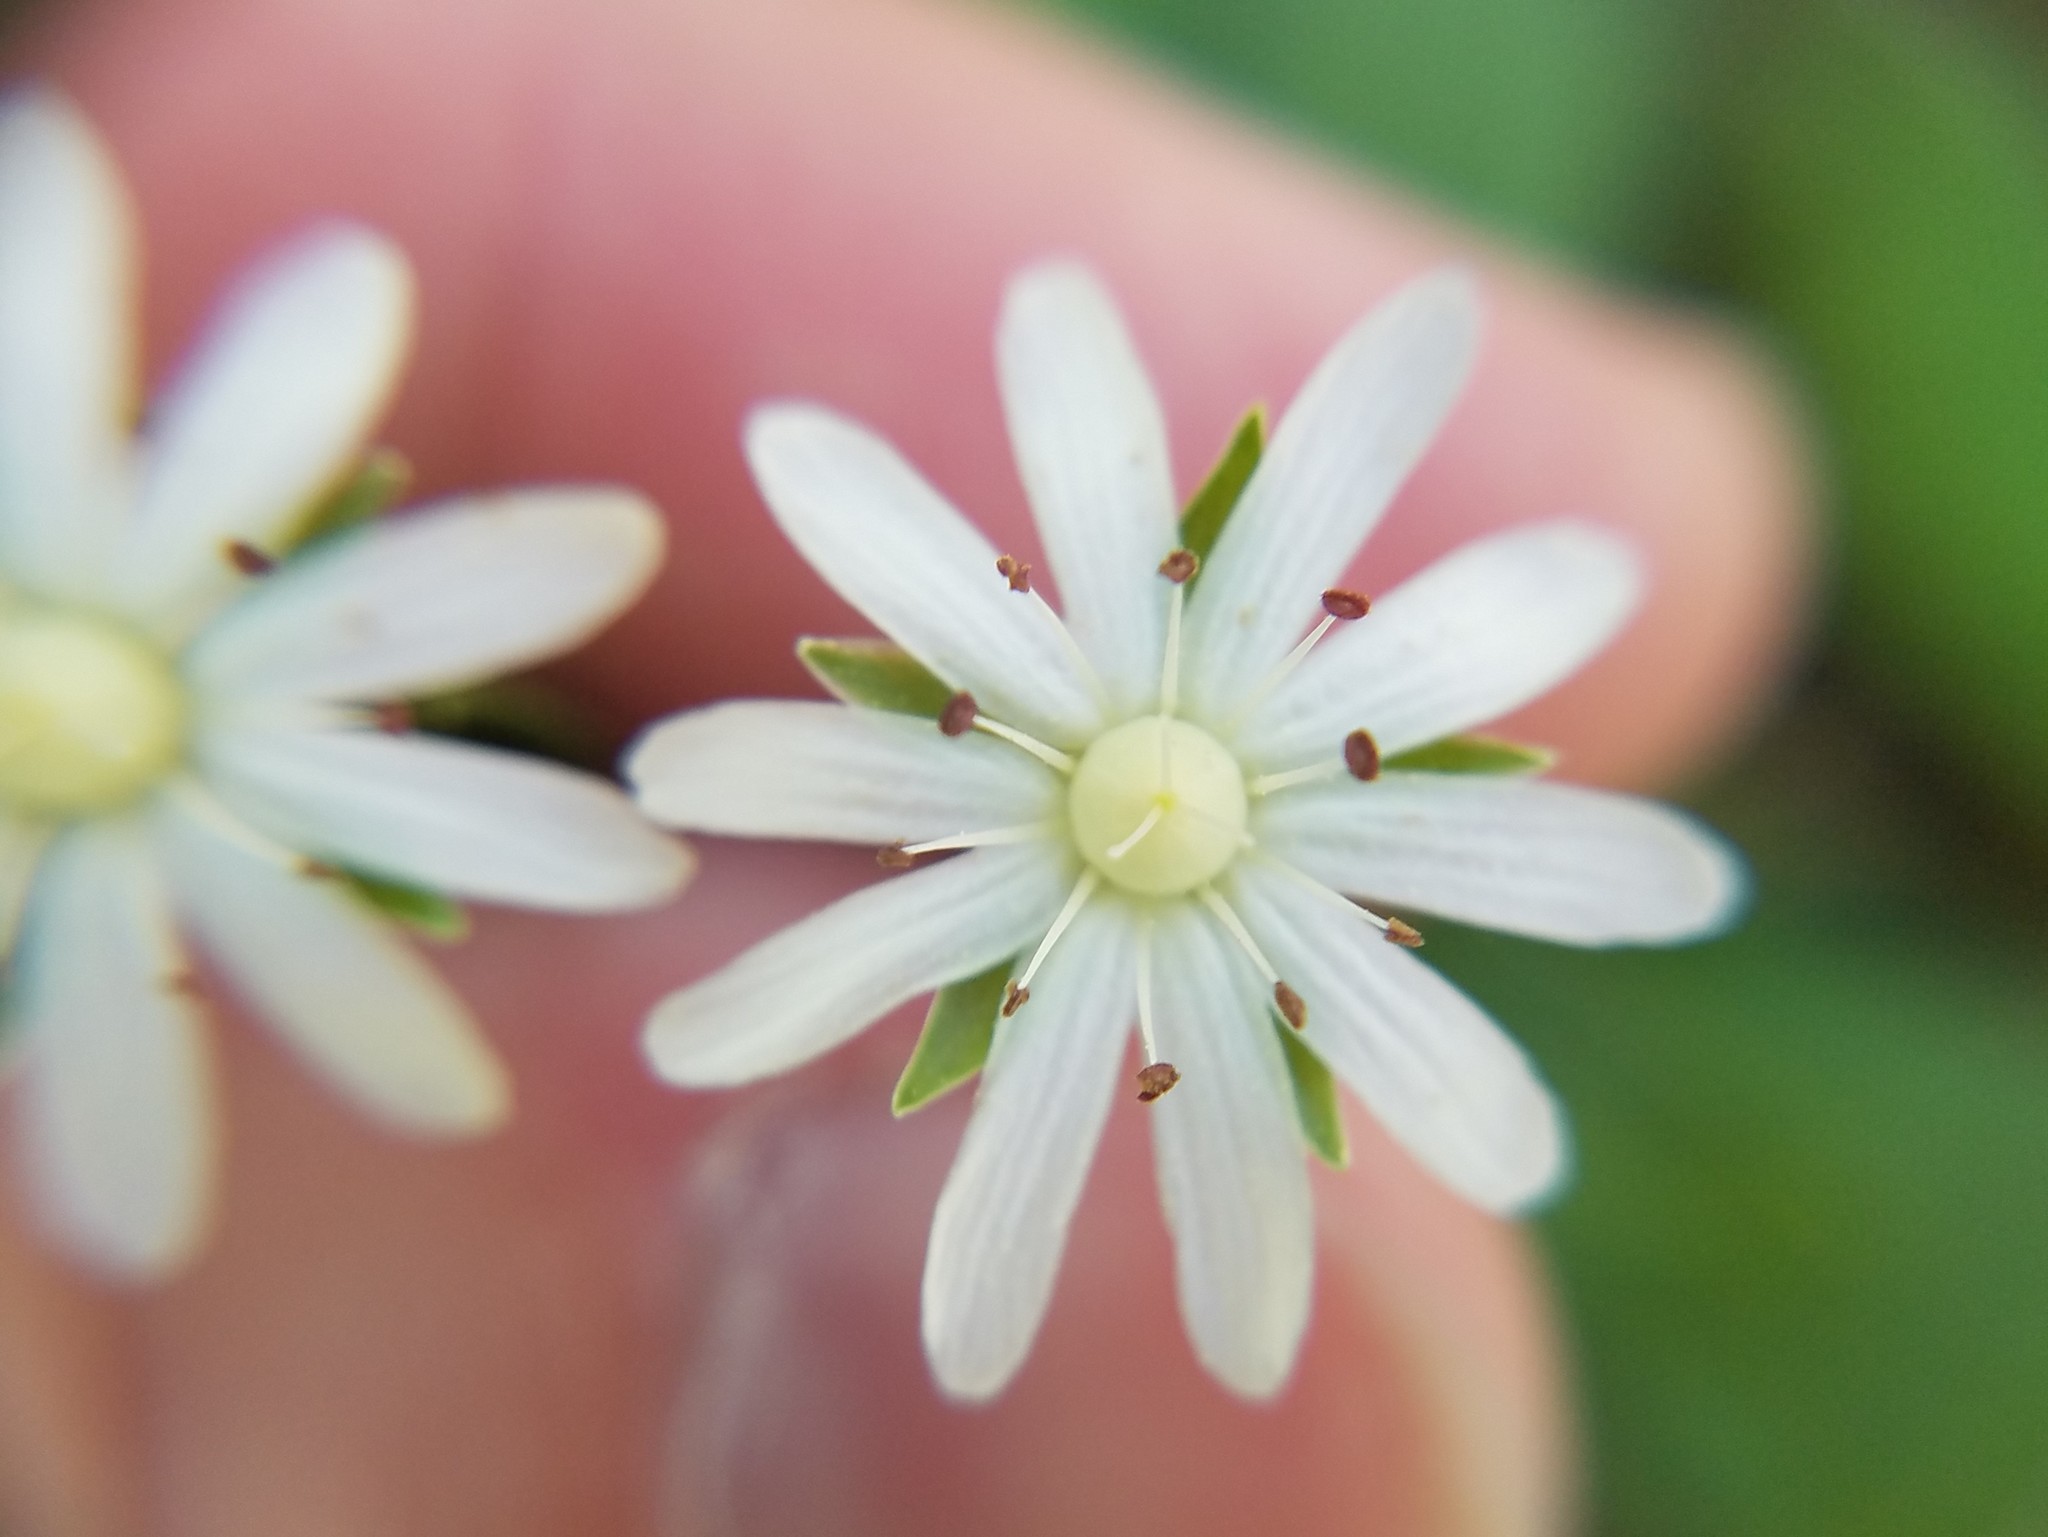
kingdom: Plantae
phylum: Tracheophyta
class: Magnoliopsida
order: Caryophyllales
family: Caryophyllaceae
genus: Stellaria
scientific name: Stellaria pubera
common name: Star chickweed
